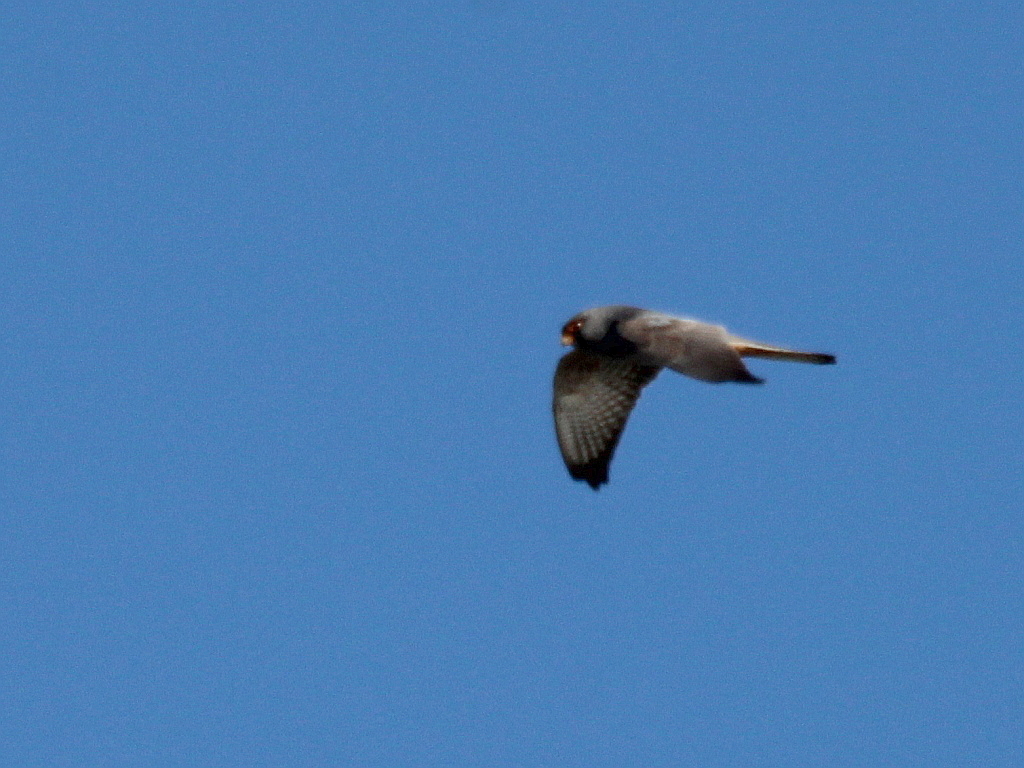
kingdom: Animalia
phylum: Chordata
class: Aves
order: Falconiformes
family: Falconidae
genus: Falco
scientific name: Falco vespertinus
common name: Red-footed falcon
